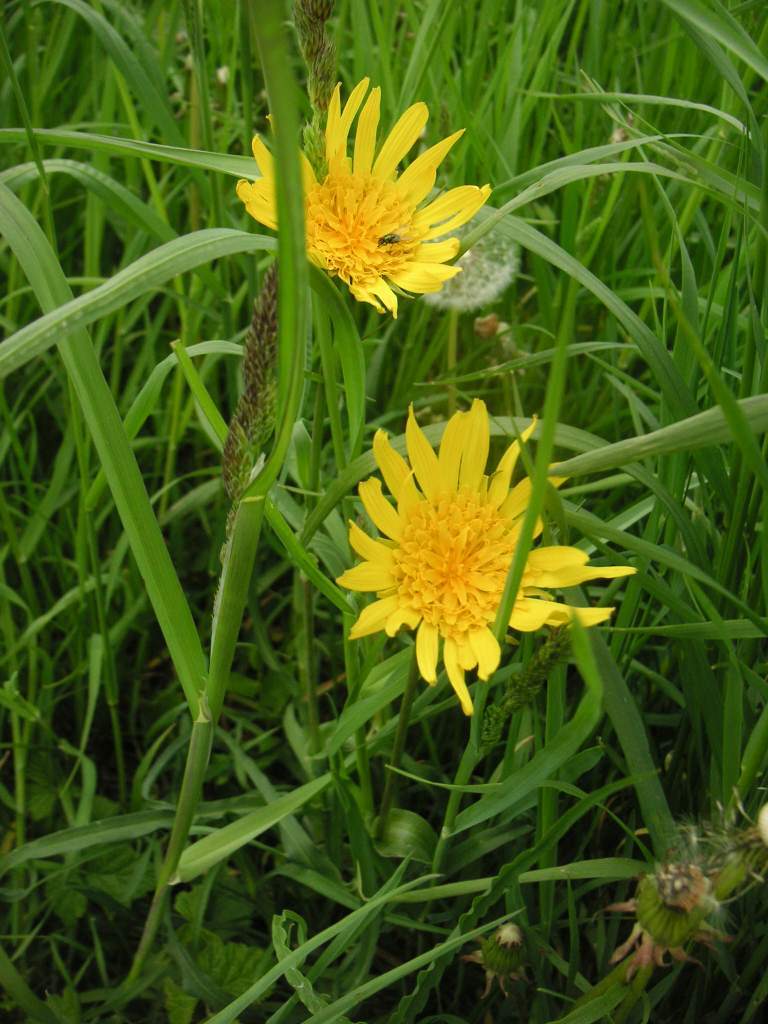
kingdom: Plantae
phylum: Tracheophyta
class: Magnoliopsida
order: Asterales
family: Asteraceae
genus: Tragopogon
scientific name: Tragopogon orientalis
